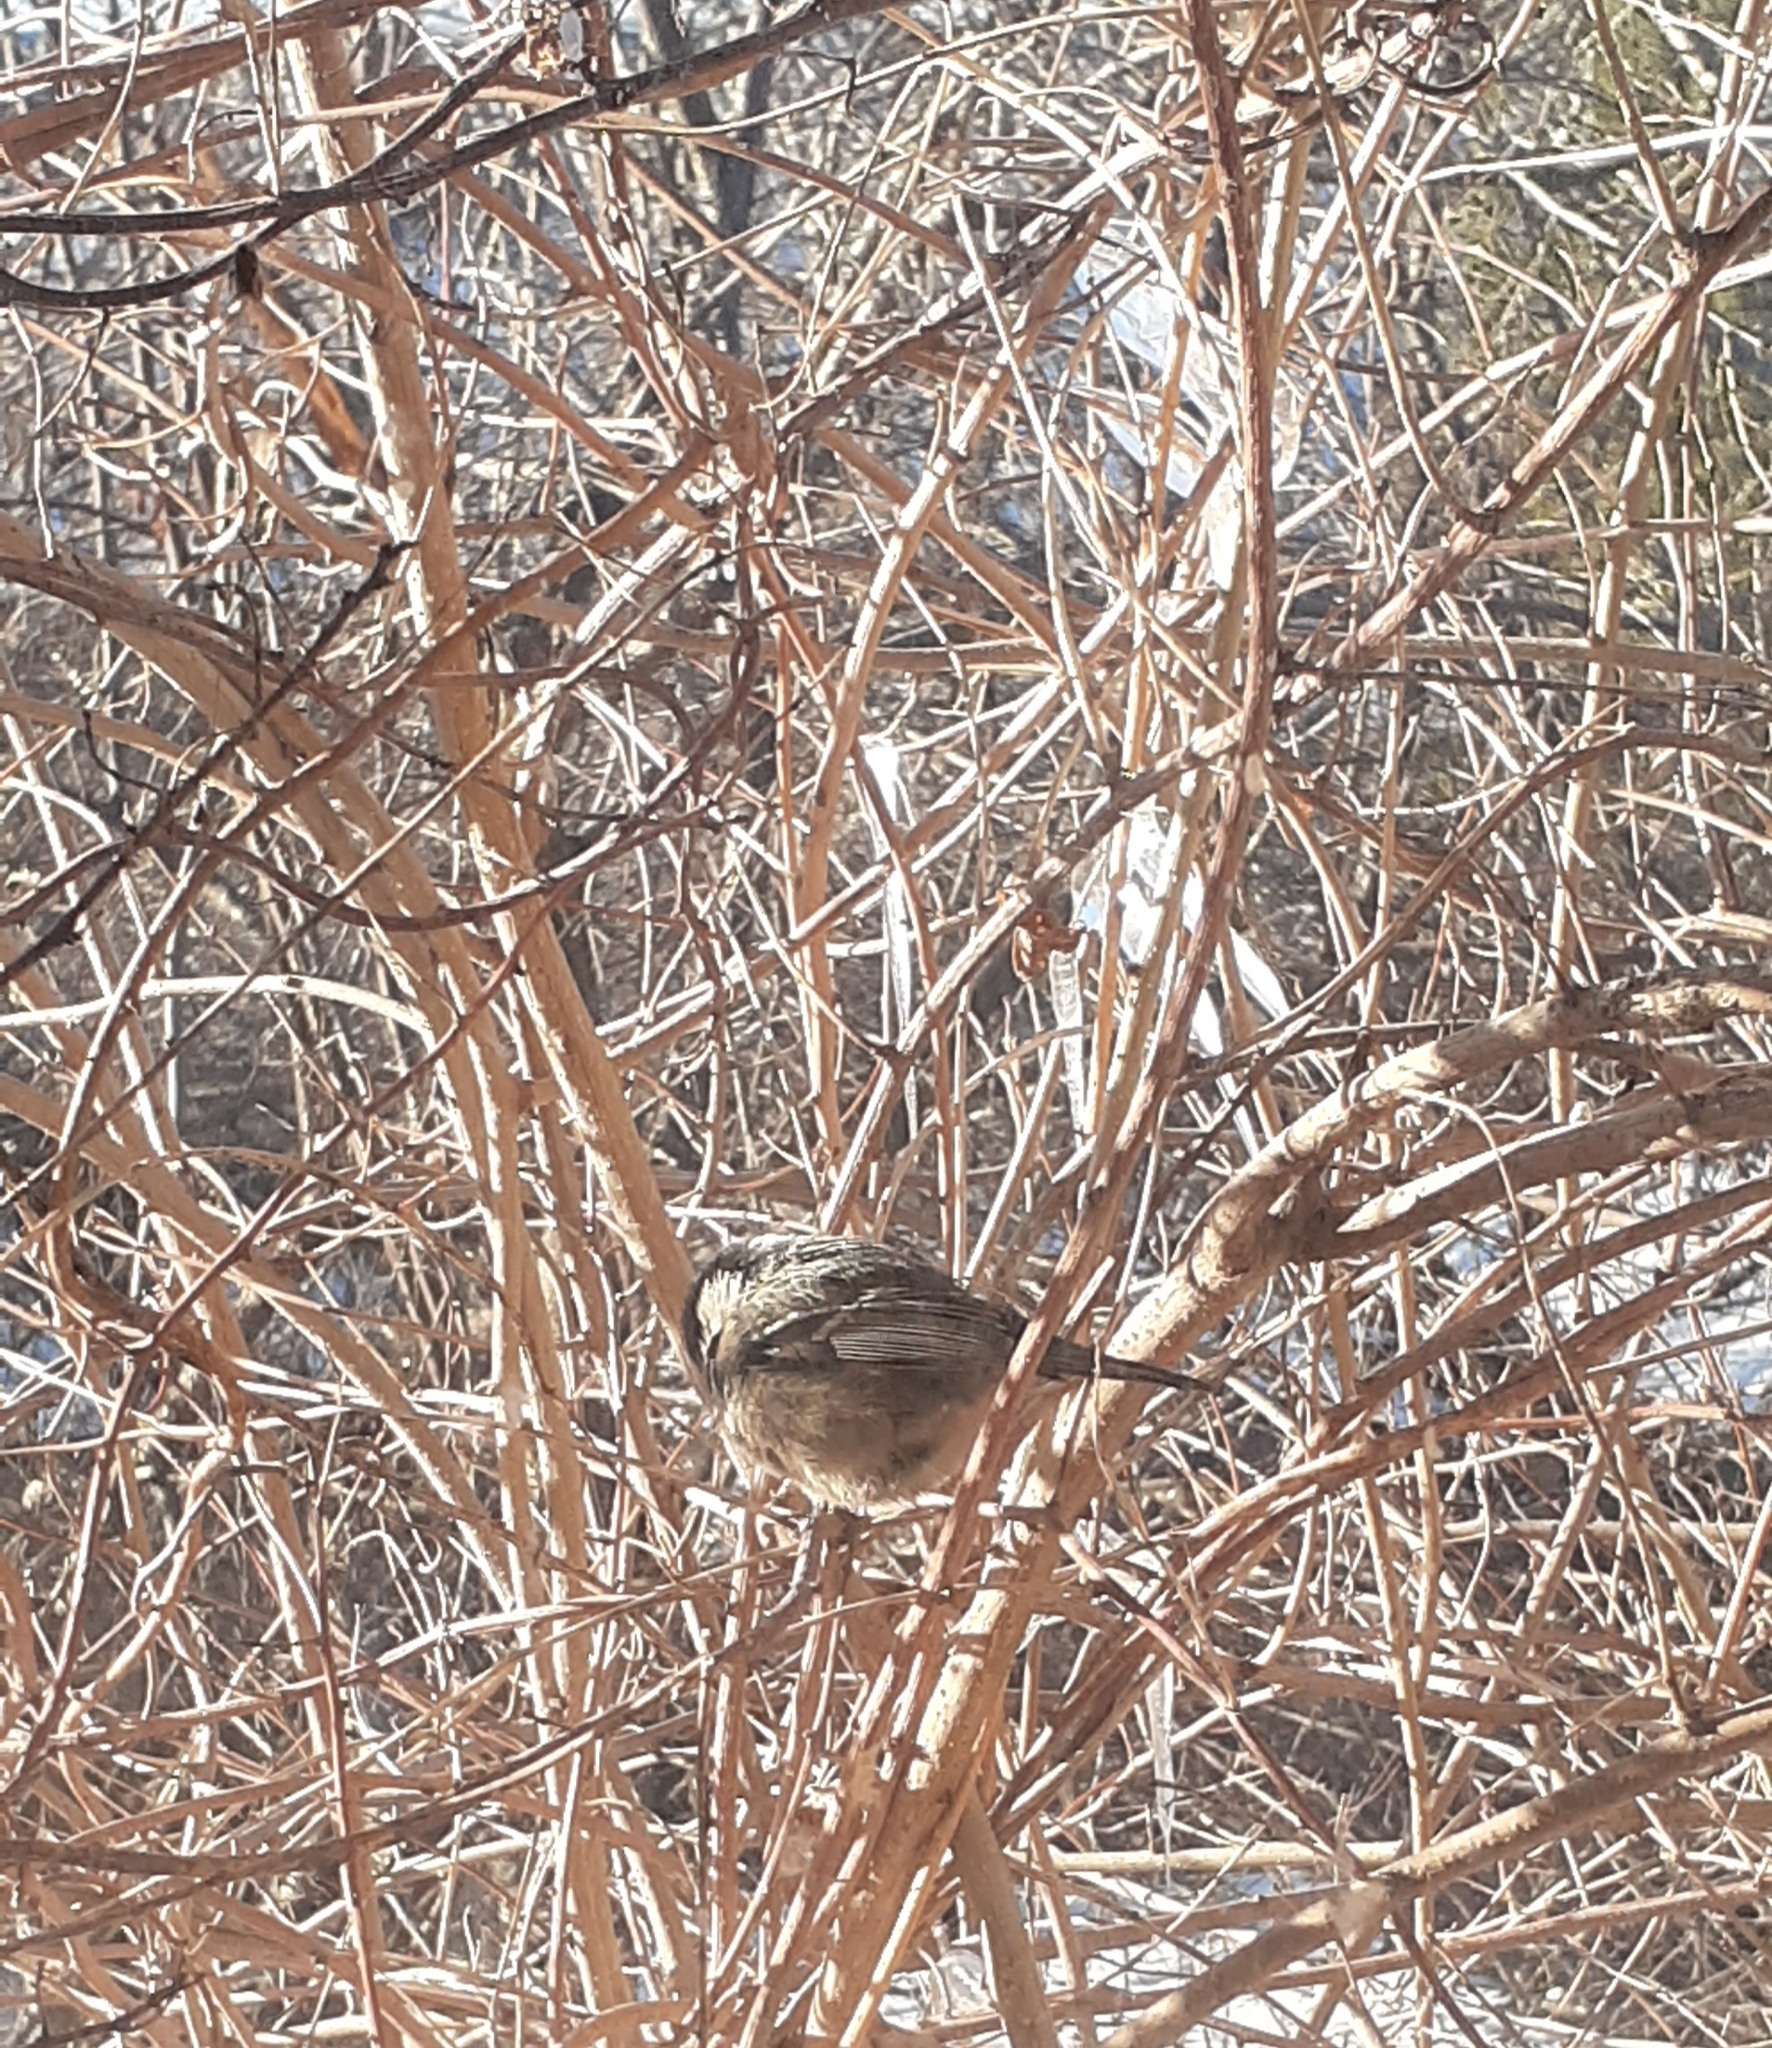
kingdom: Animalia
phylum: Chordata
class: Aves
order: Passeriformes
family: Paridae
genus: Periparus
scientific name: Periparus ater
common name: Coal tit
